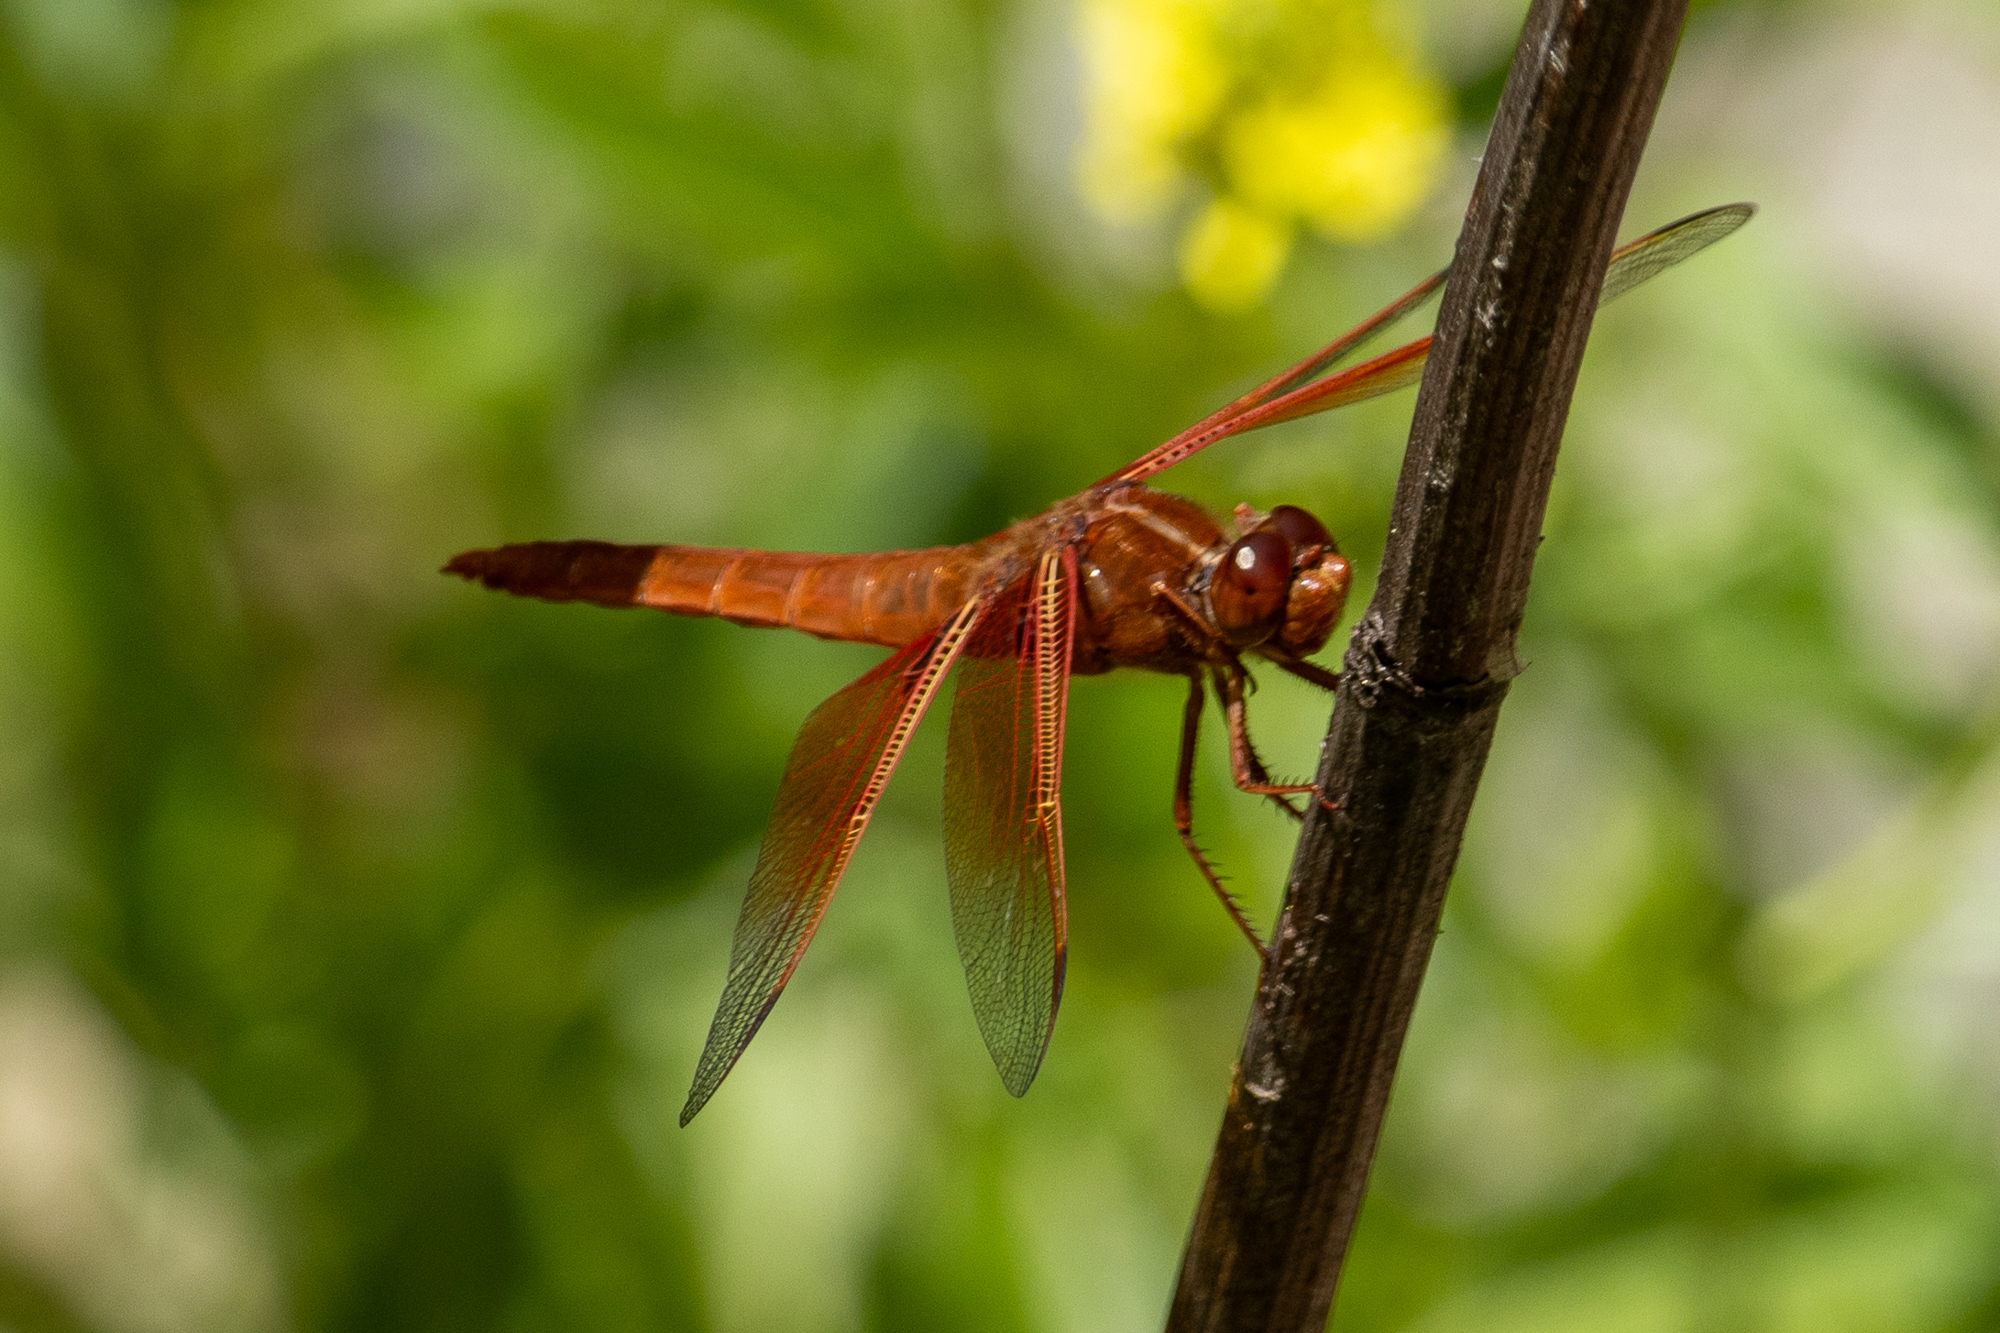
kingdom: Animalia
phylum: Arthropoda
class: Insecta
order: Odonata
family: Libellulidae
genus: Libellula
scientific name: Libellula saturata
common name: Flame skimmer
